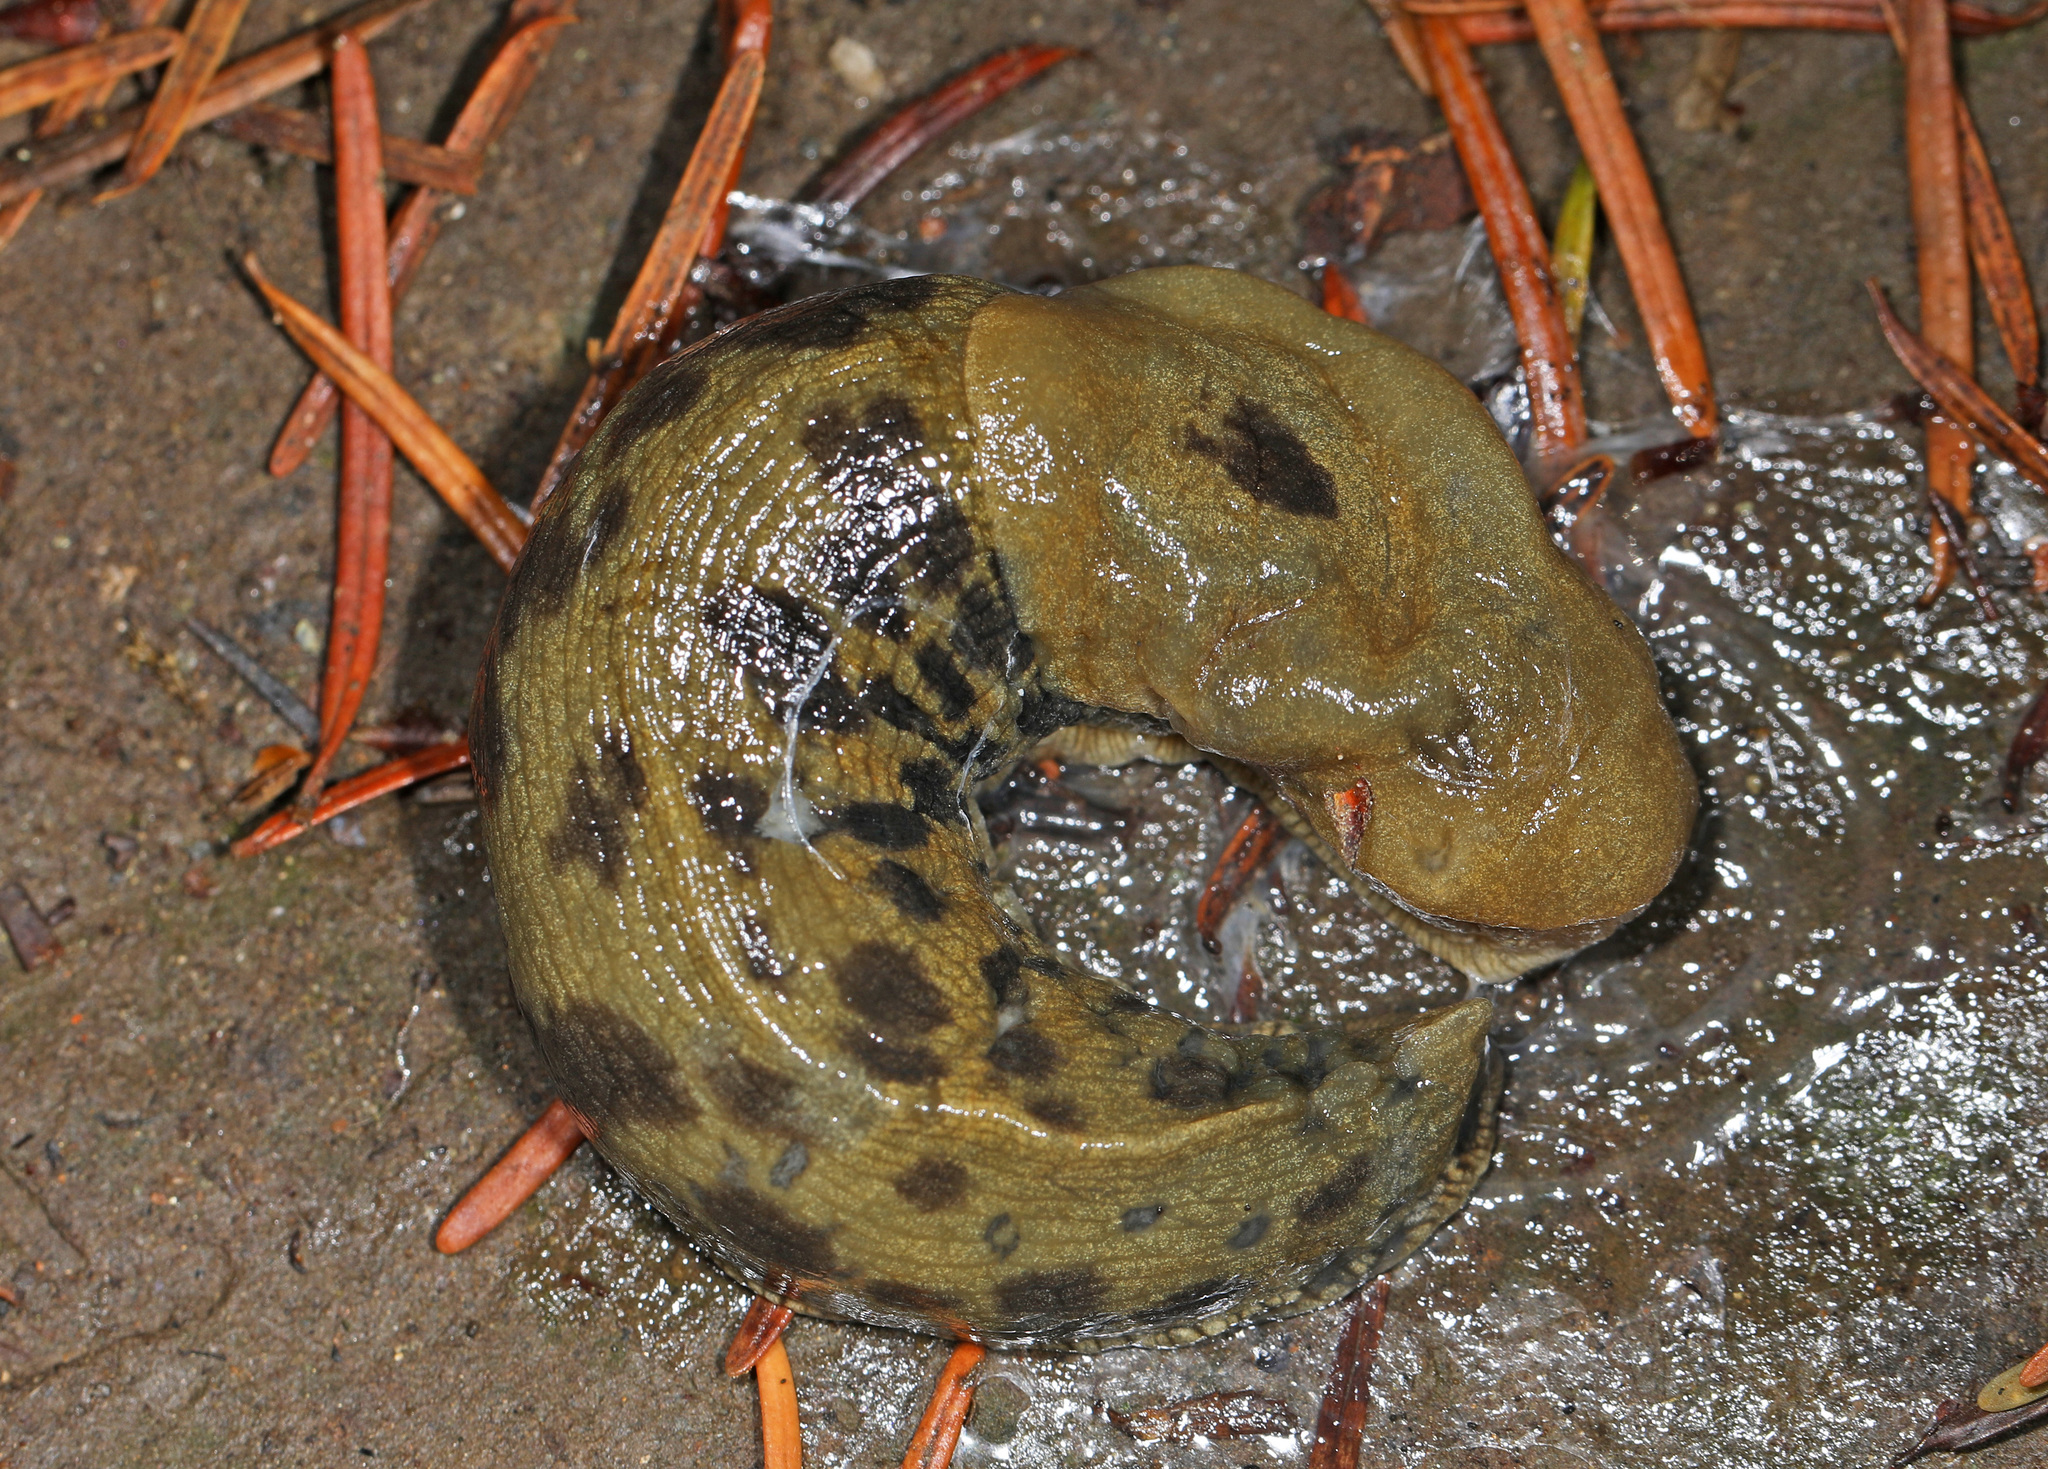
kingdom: Animalia
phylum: Mollusca
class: Gastropoda
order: Stylommatophora
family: Ariolimacidae
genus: Ariolimax
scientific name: Ariolimax columbianus
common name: Pacific banana slug
